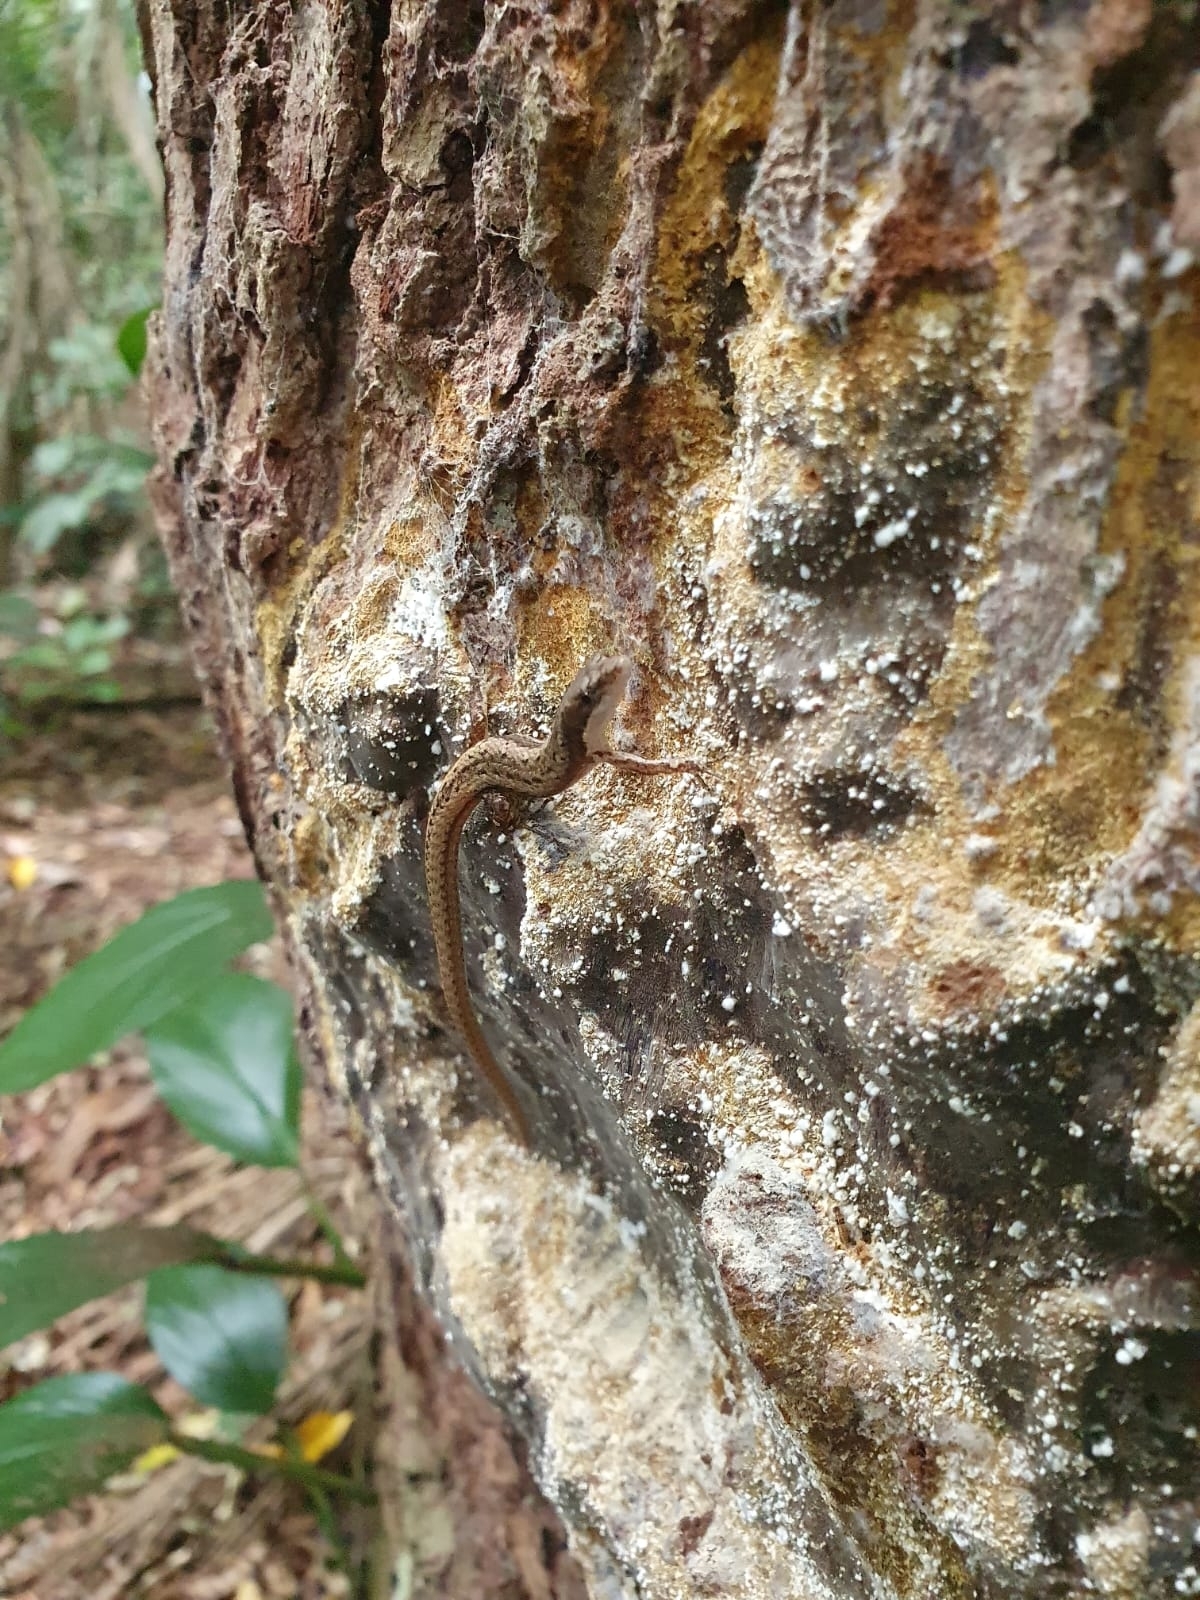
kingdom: Animalia
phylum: Chordata
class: Squamata
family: Gymnophthalmidae
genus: Placosoma
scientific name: Placosoma cordylinum
